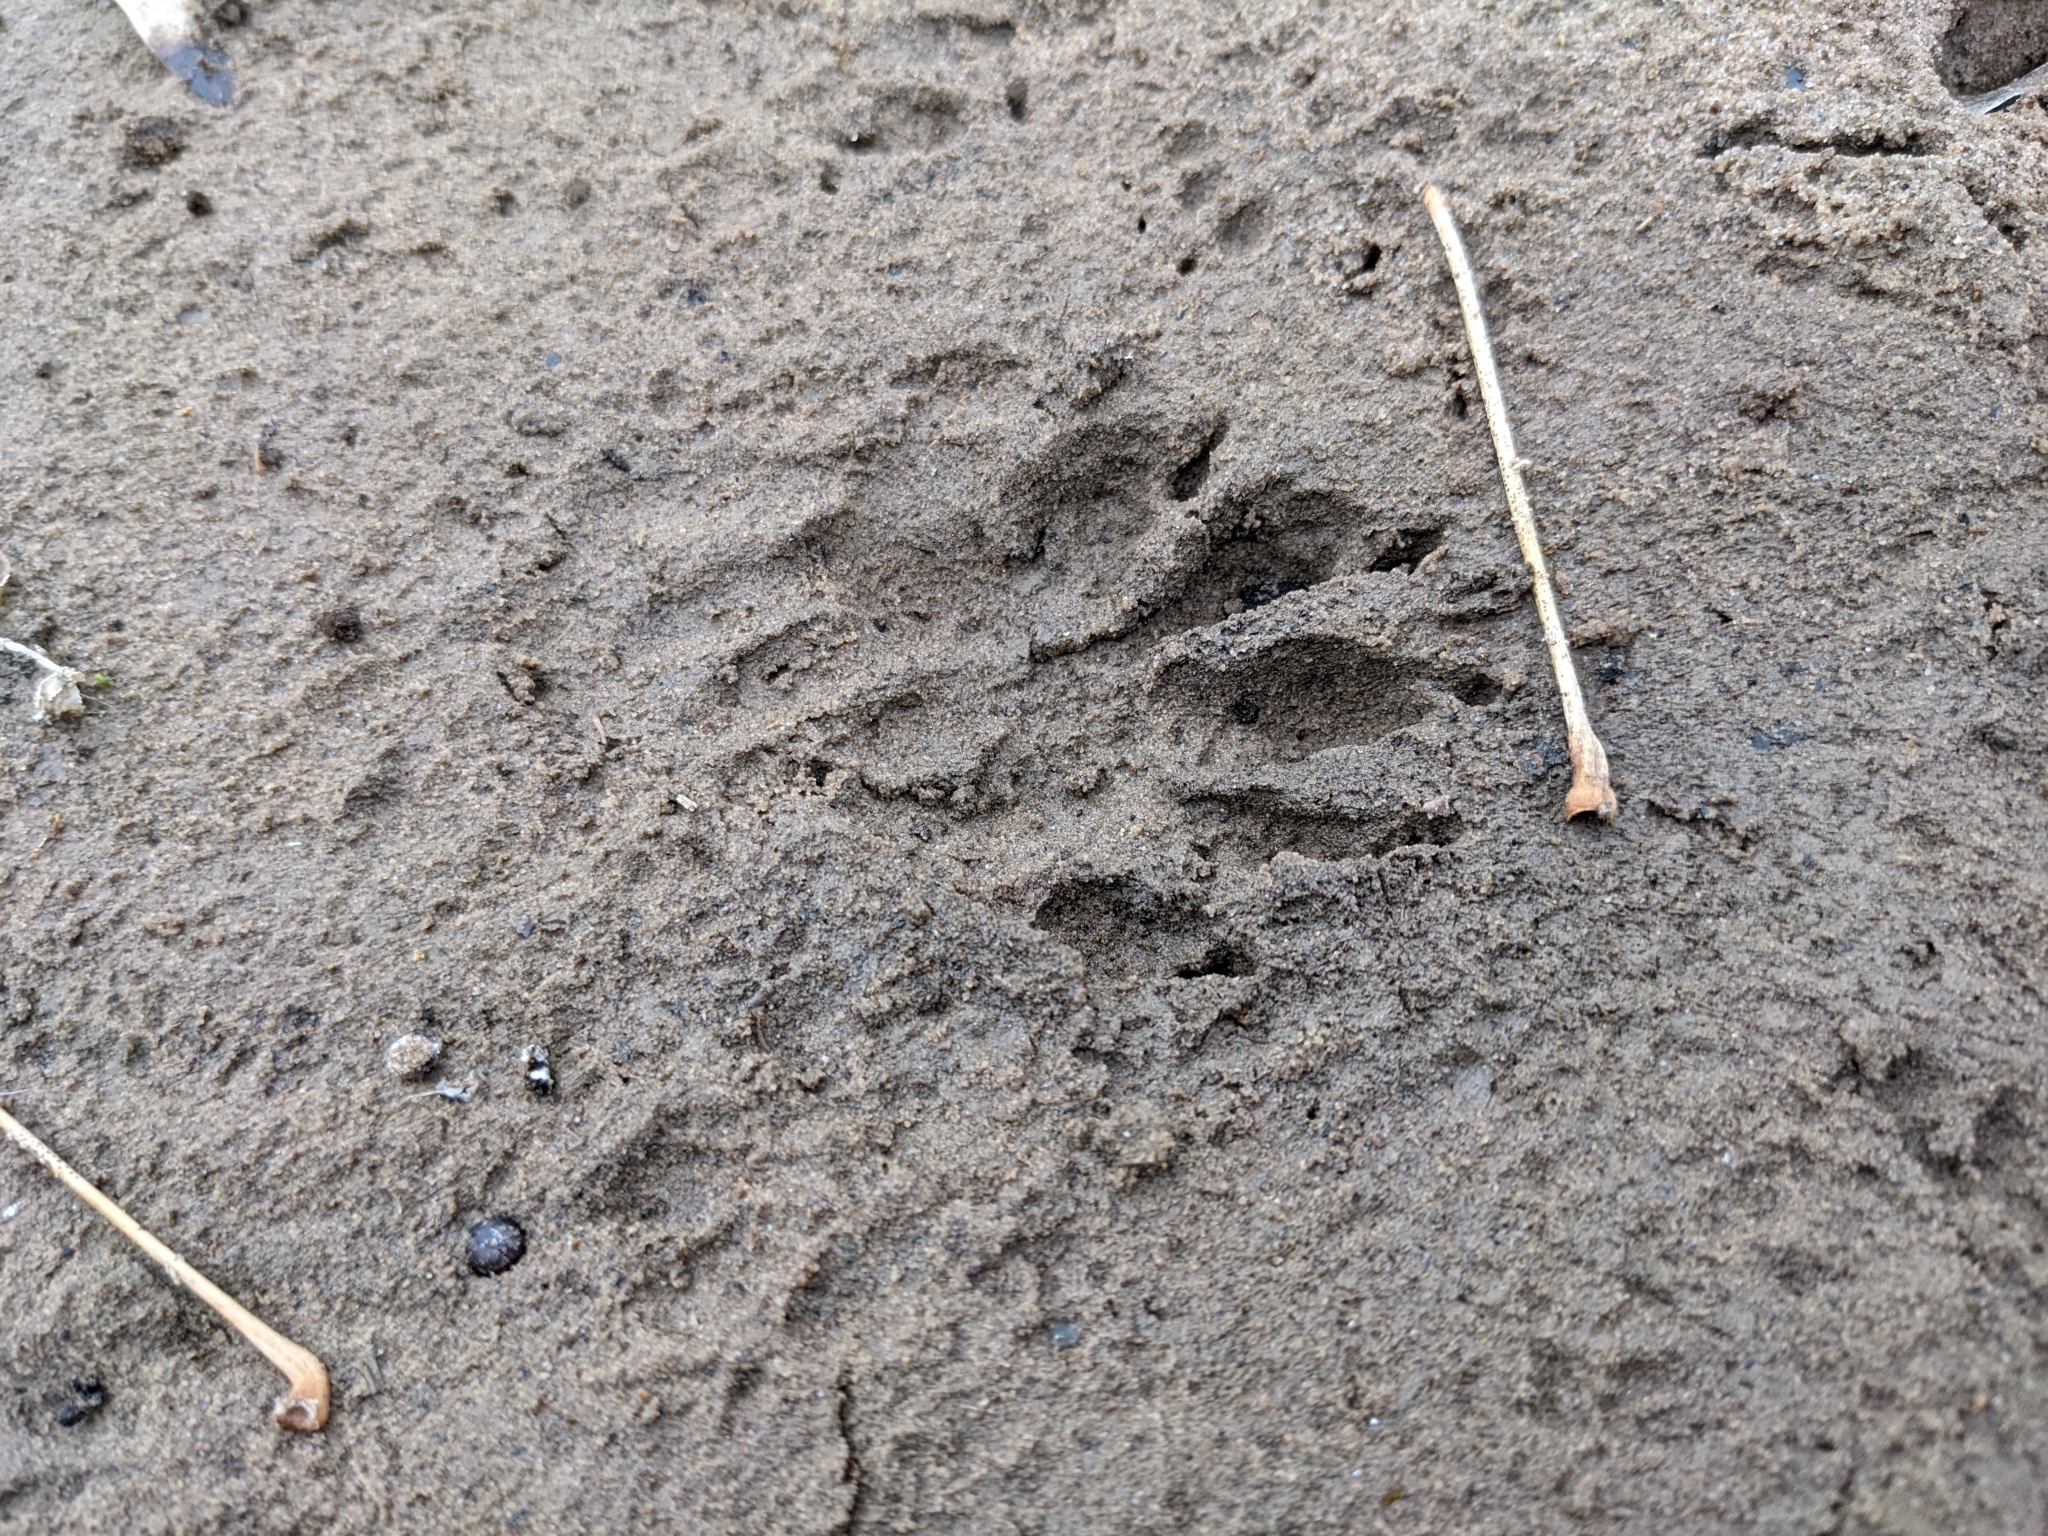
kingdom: Animalia
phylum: Chordata
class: Mammalia
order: Carnivora
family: Procyonidae
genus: Procyon
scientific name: Procyon lotor
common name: Raccoon
